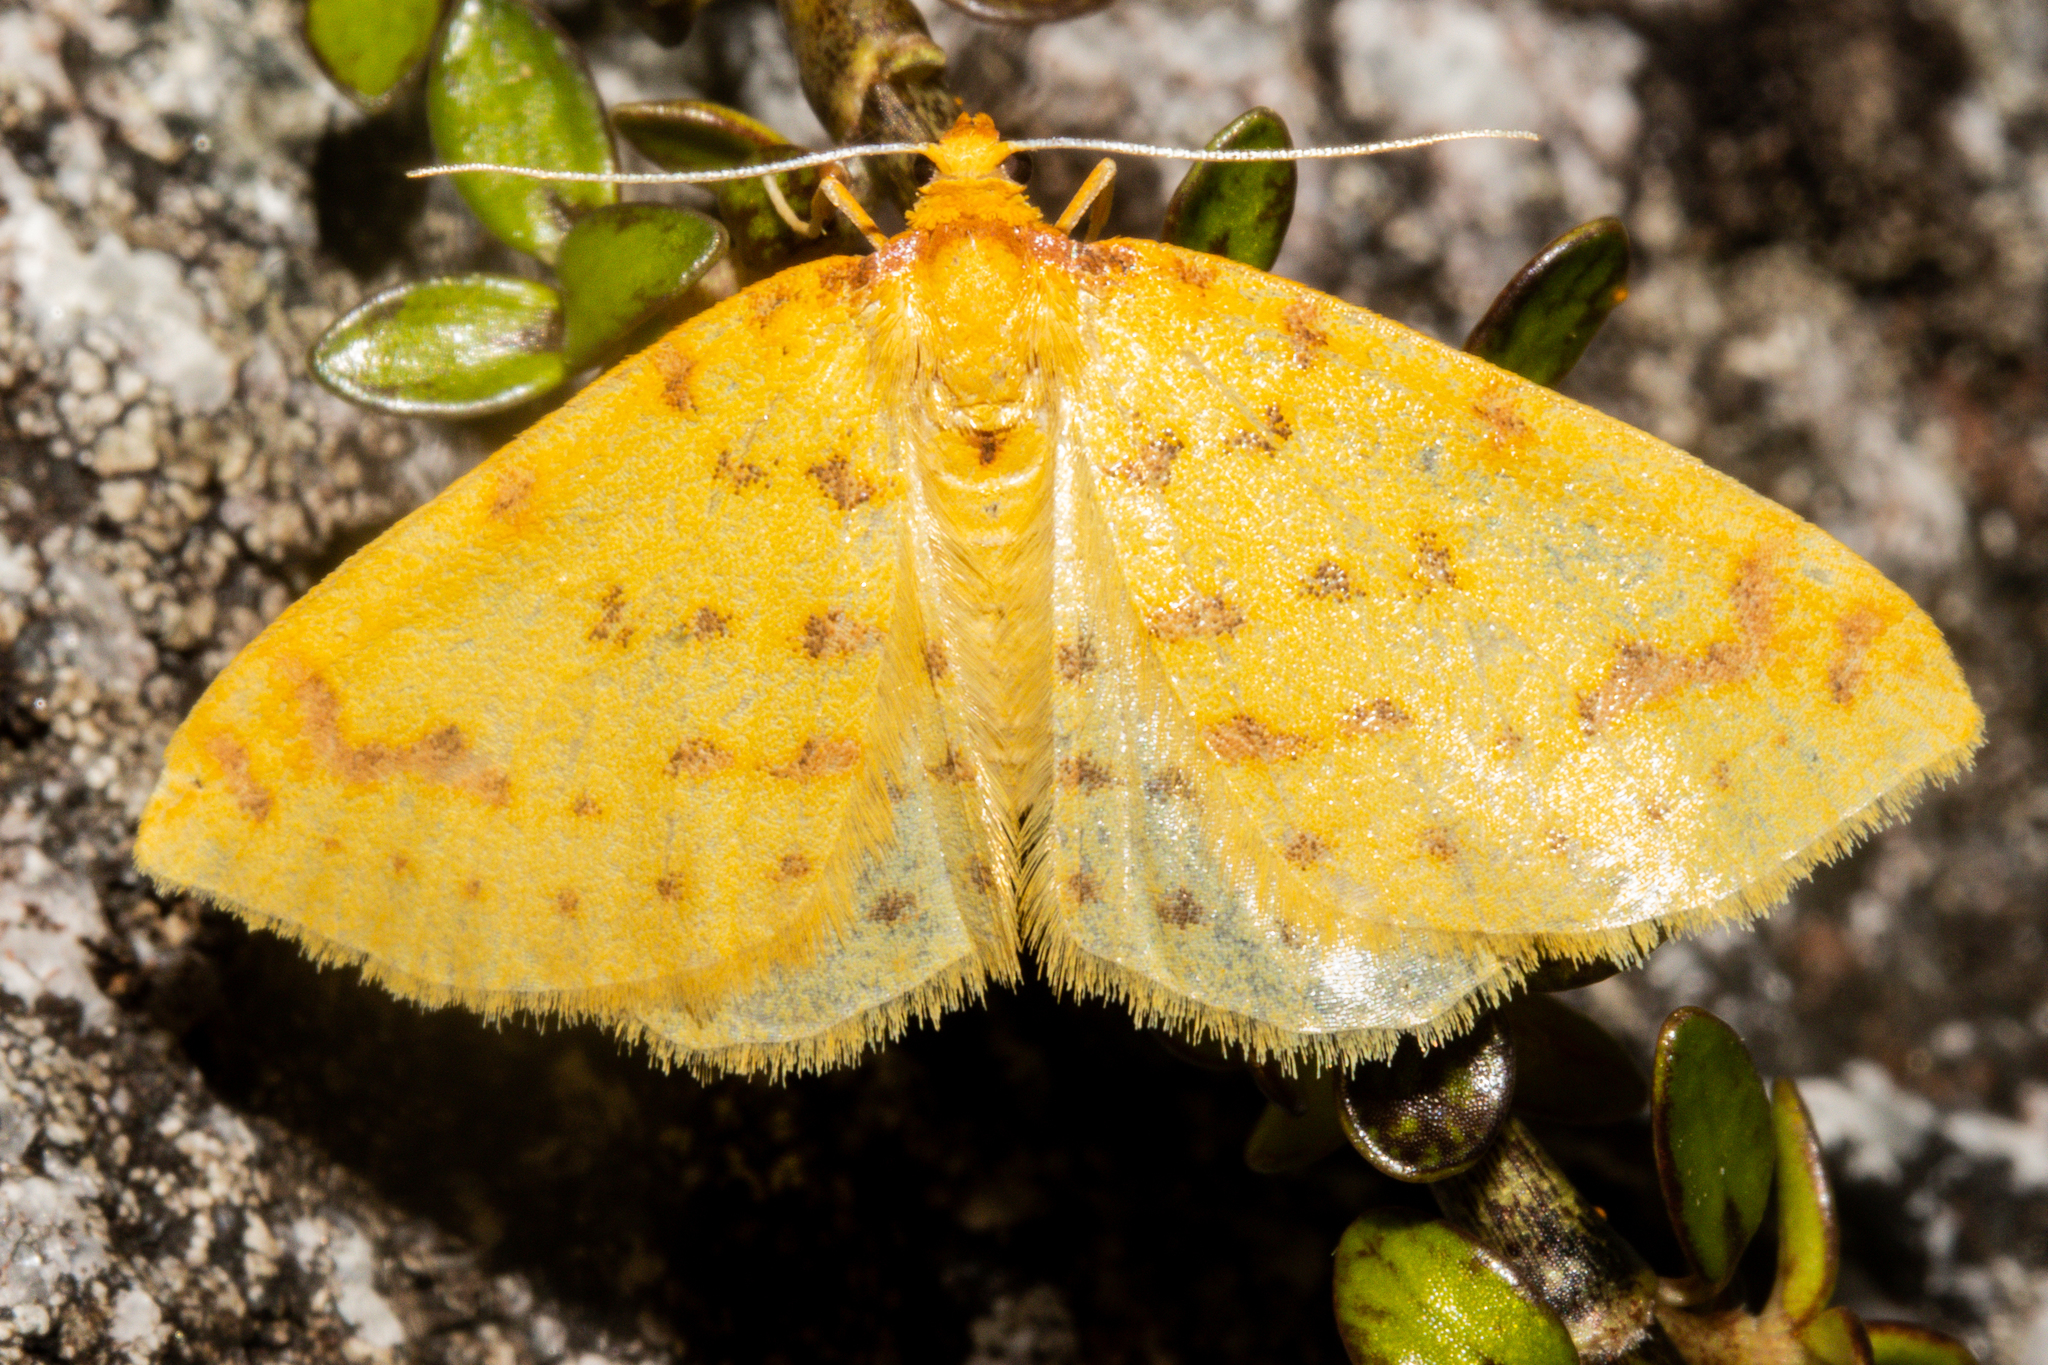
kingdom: Animalia
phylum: Arthropoda
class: Insecta
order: Lepidoptera
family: Geometridae
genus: Orthoclydon
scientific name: Orthoclydon chlorias
